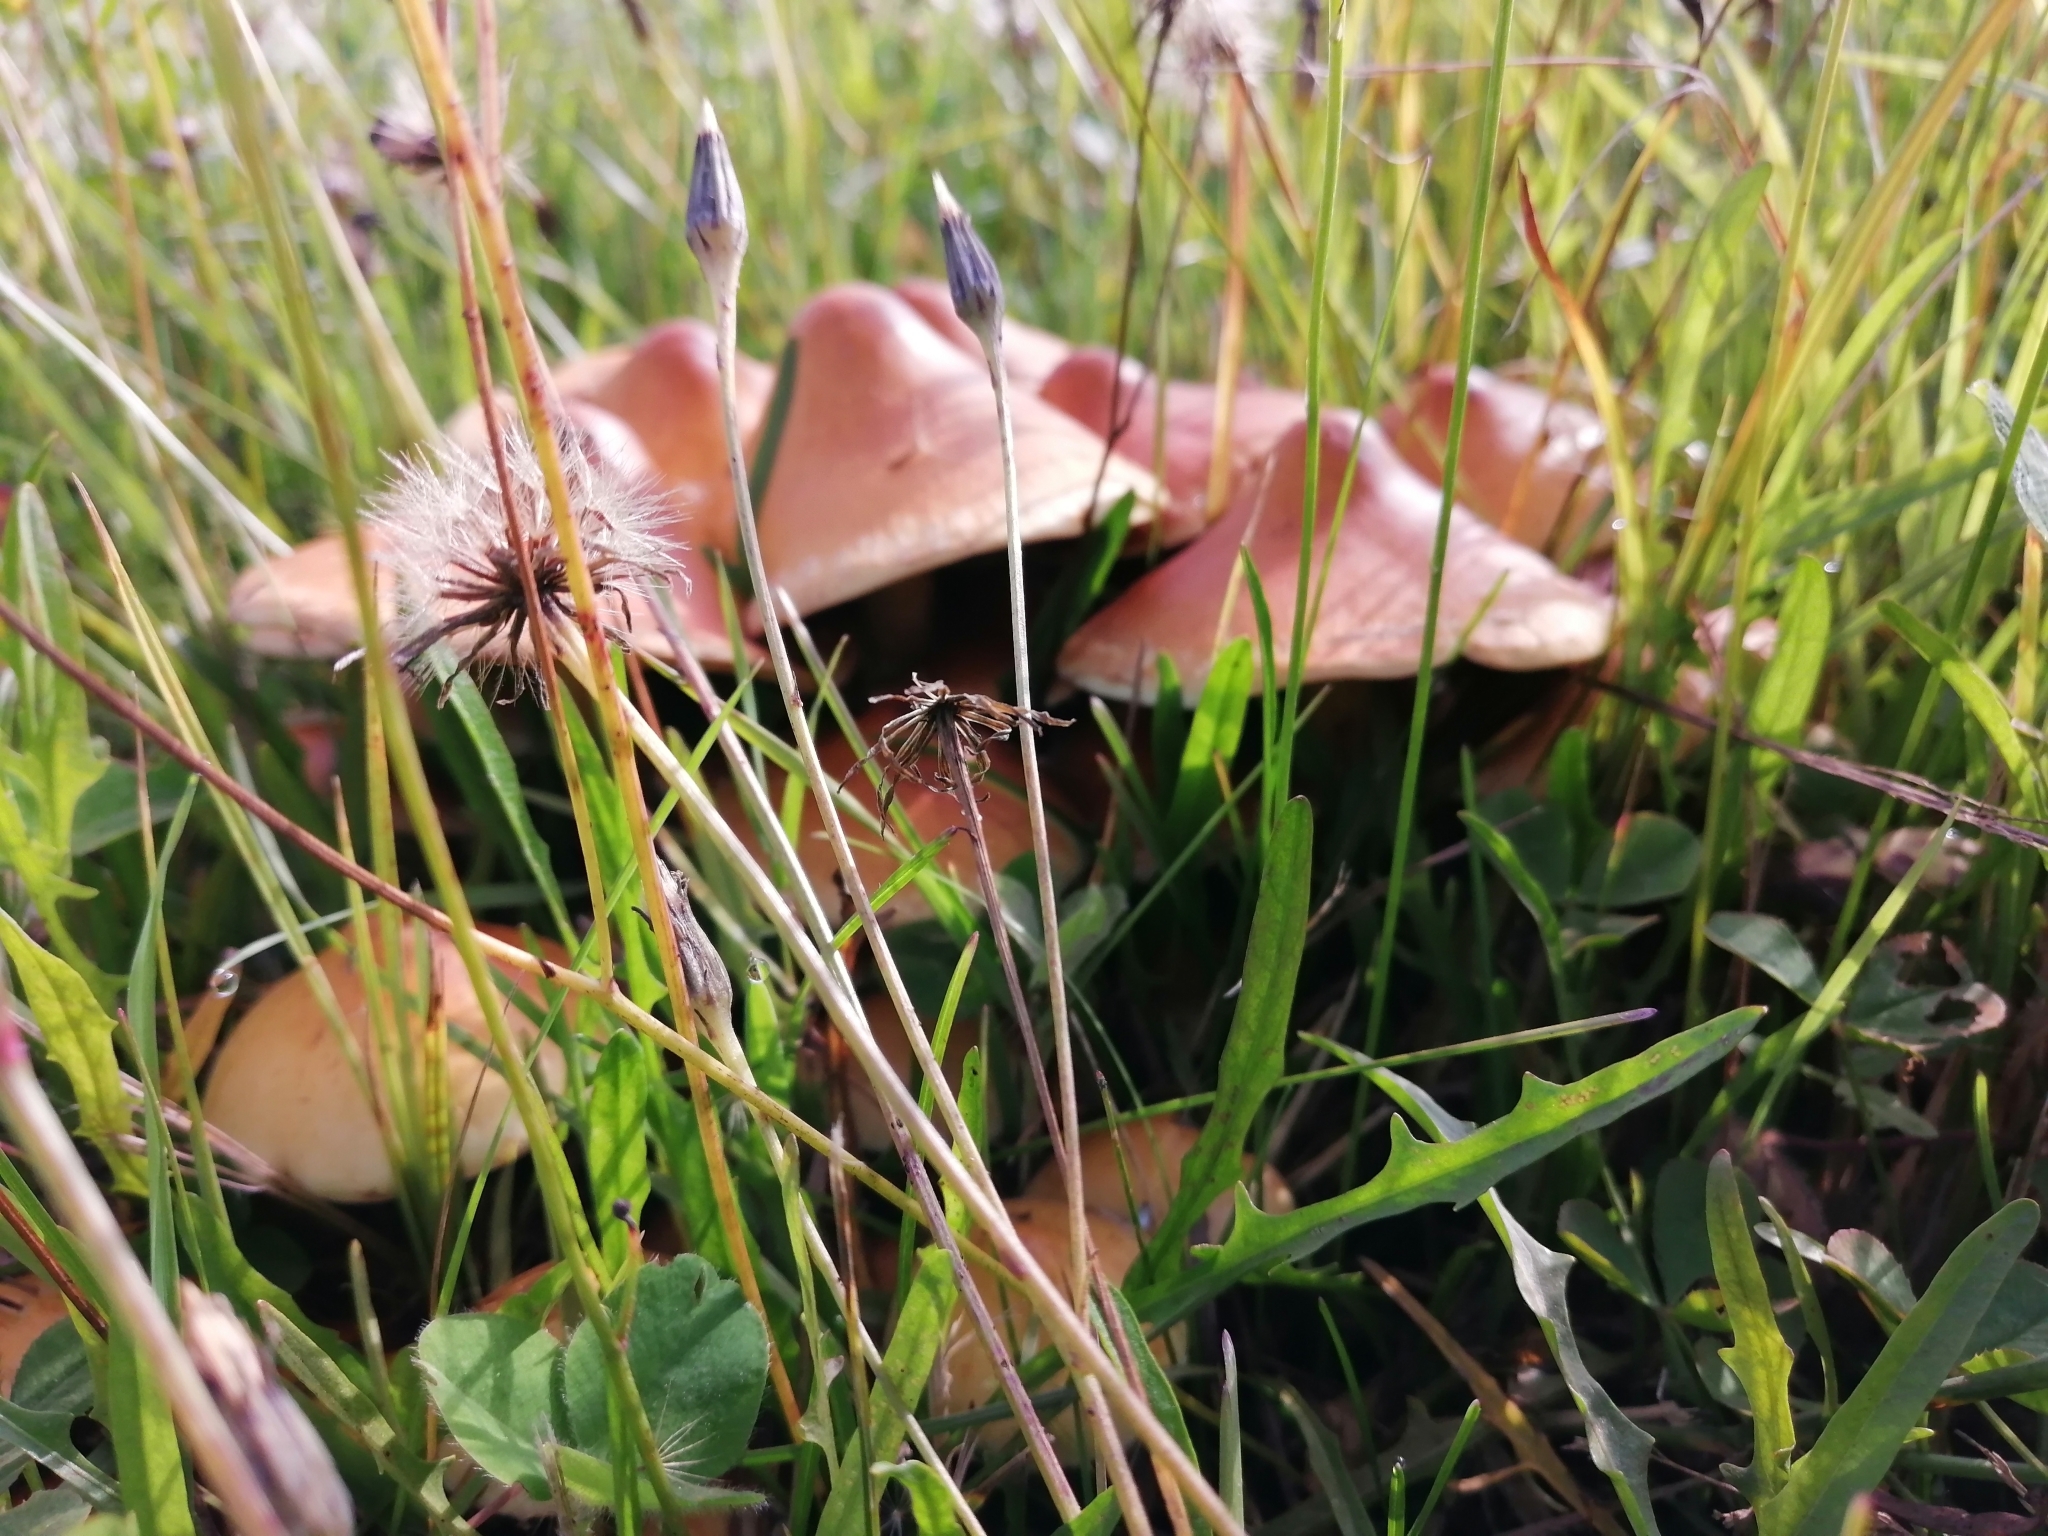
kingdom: Fungi
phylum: Basidiomycota
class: Agaricomycetes
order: Agaricales
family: Strophariaceae
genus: Pholiota
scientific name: Pholiota spumosa
